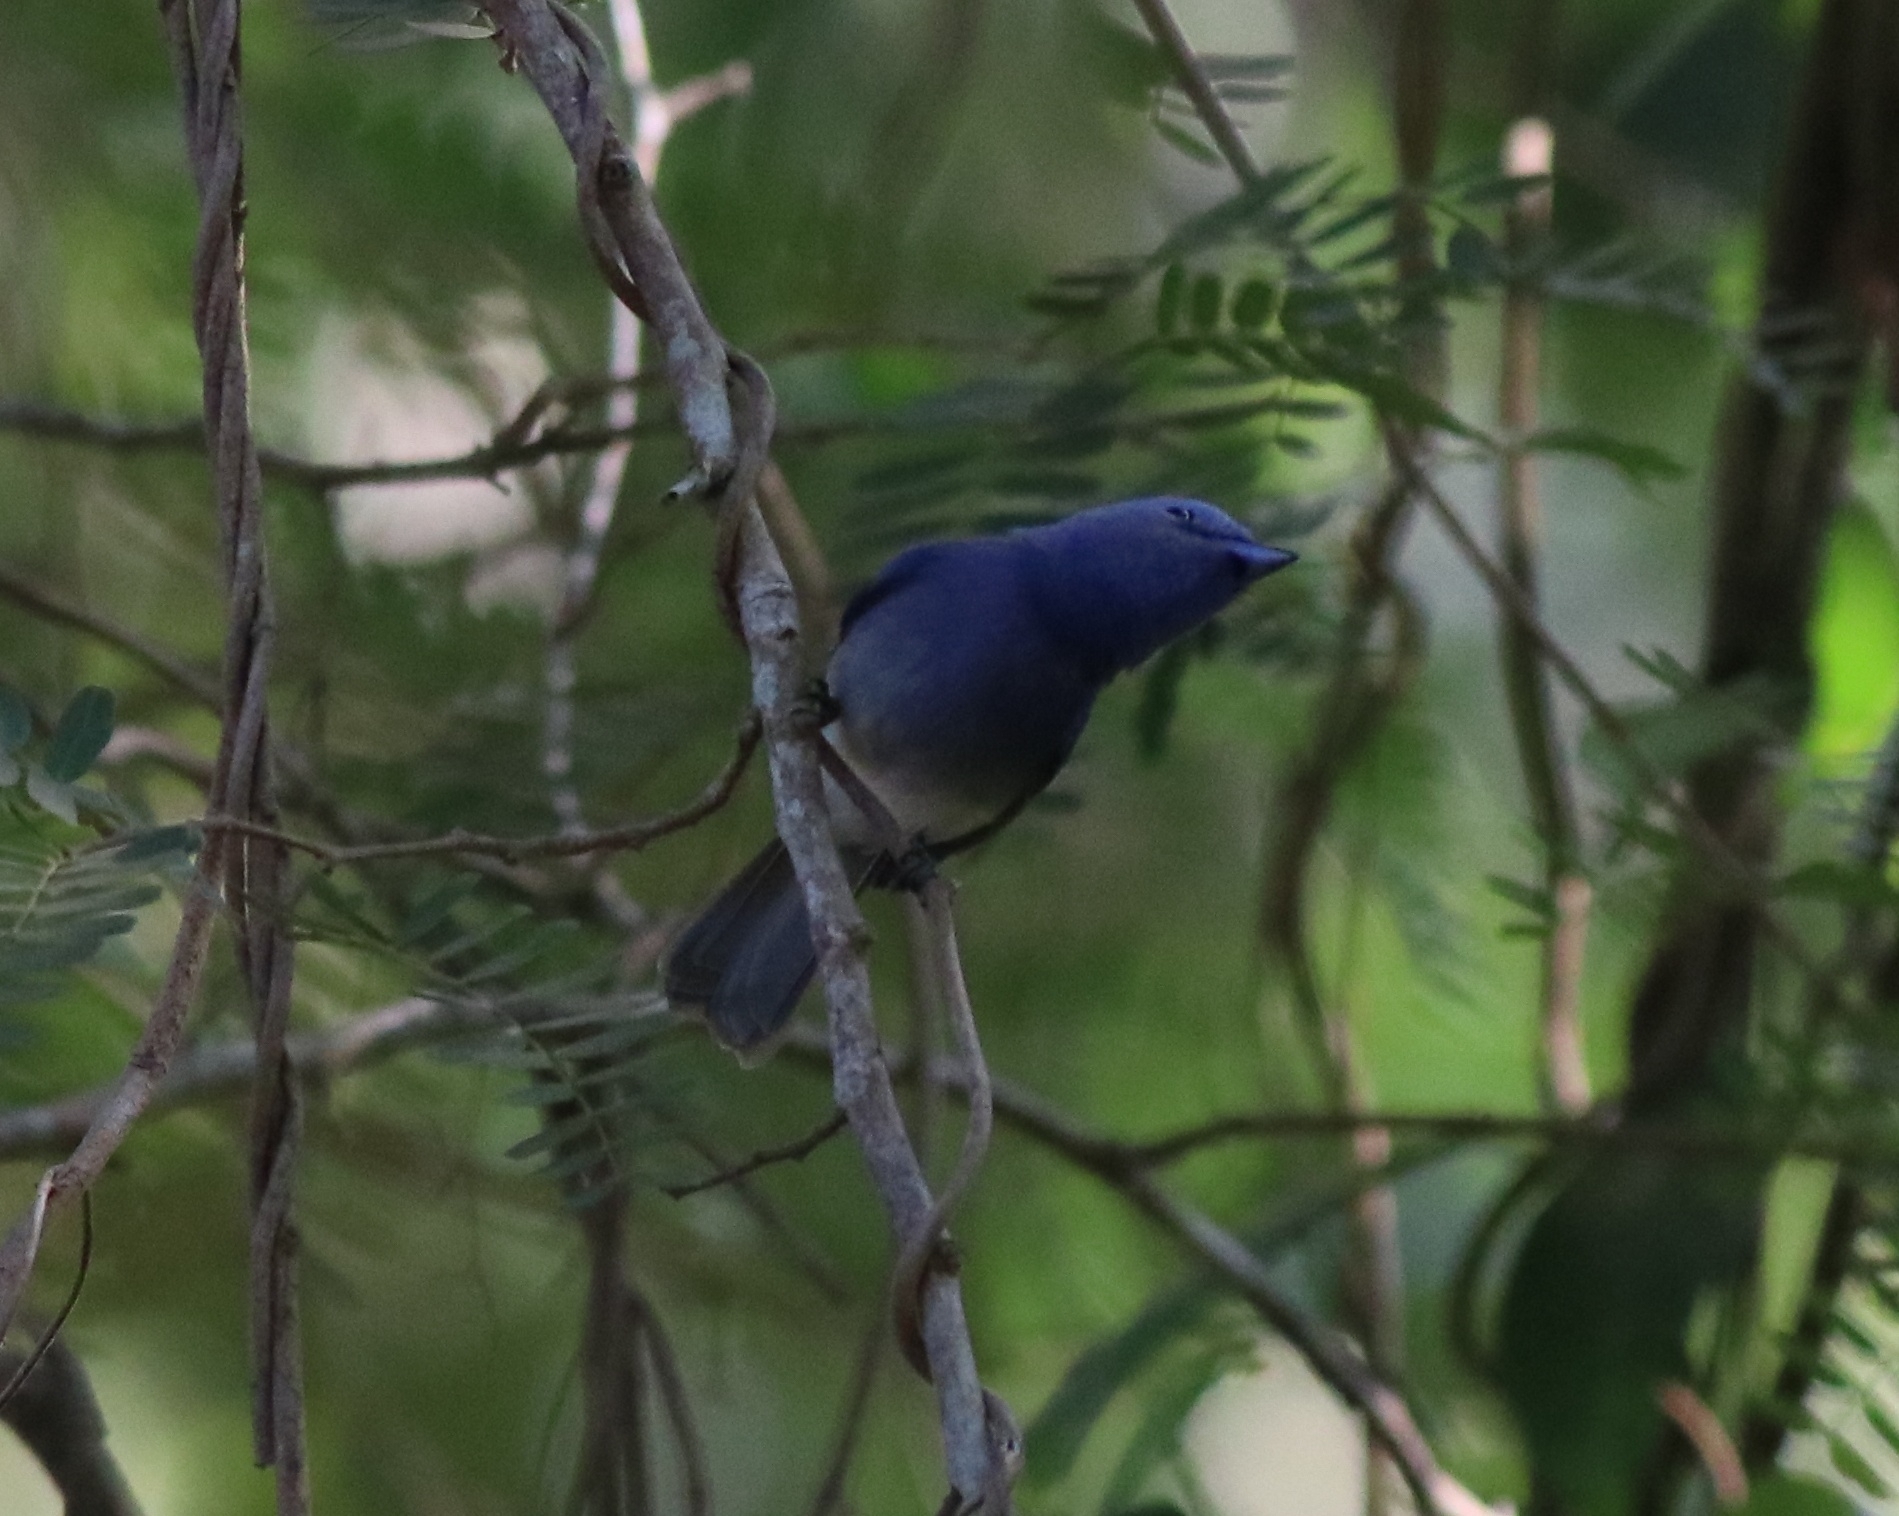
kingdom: Animalia
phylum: Chordata
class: Aves
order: Passeriformes
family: Monarchidae
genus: Hypothymis
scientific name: Hypothymis azurea
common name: Black-naped monarch
